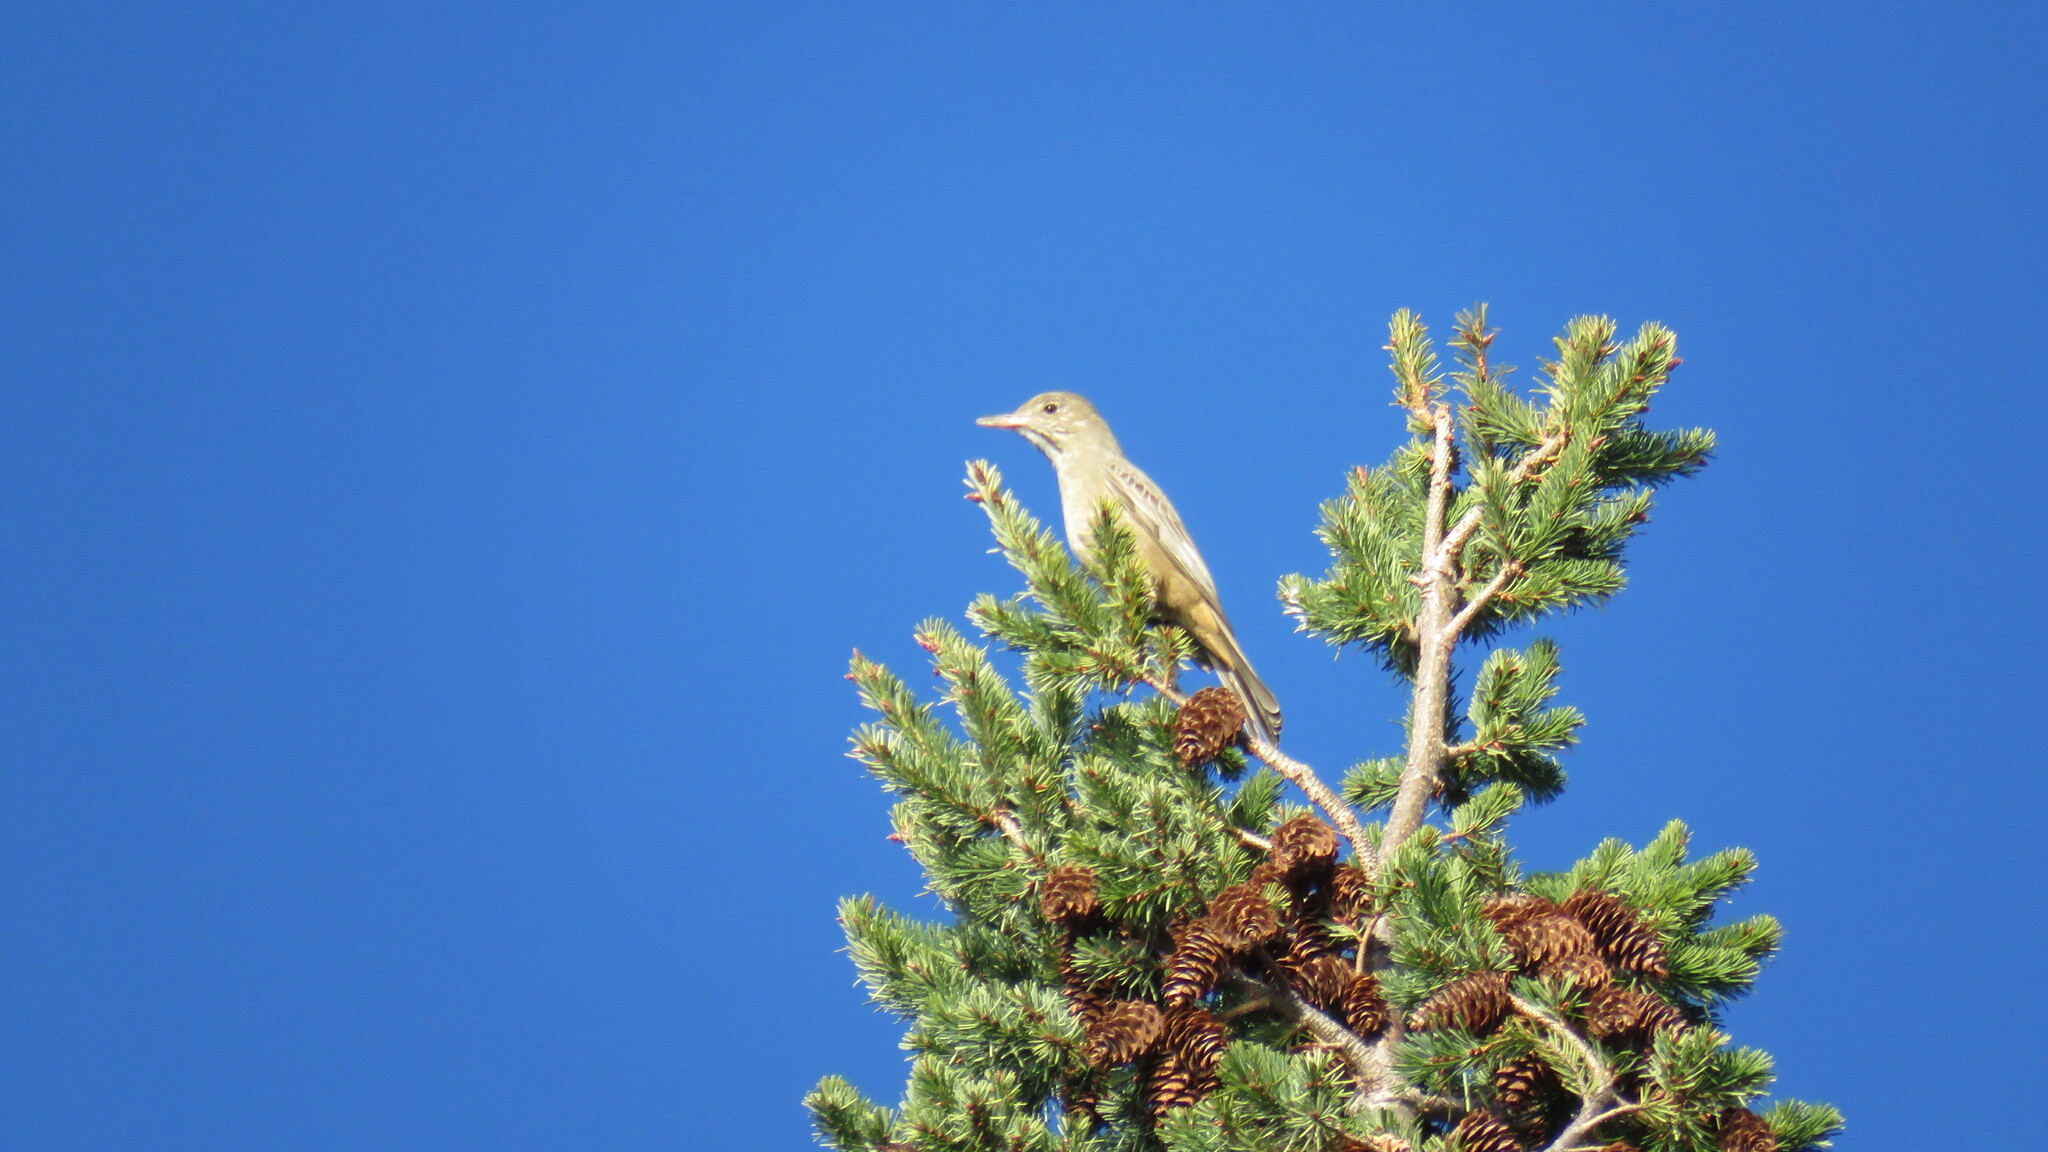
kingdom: Animalia
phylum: Chordata
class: Aves
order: Passeriformes
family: Tyrannidae
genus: Agriornis
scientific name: Agriornis lividus
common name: Great shrike-tyrant
